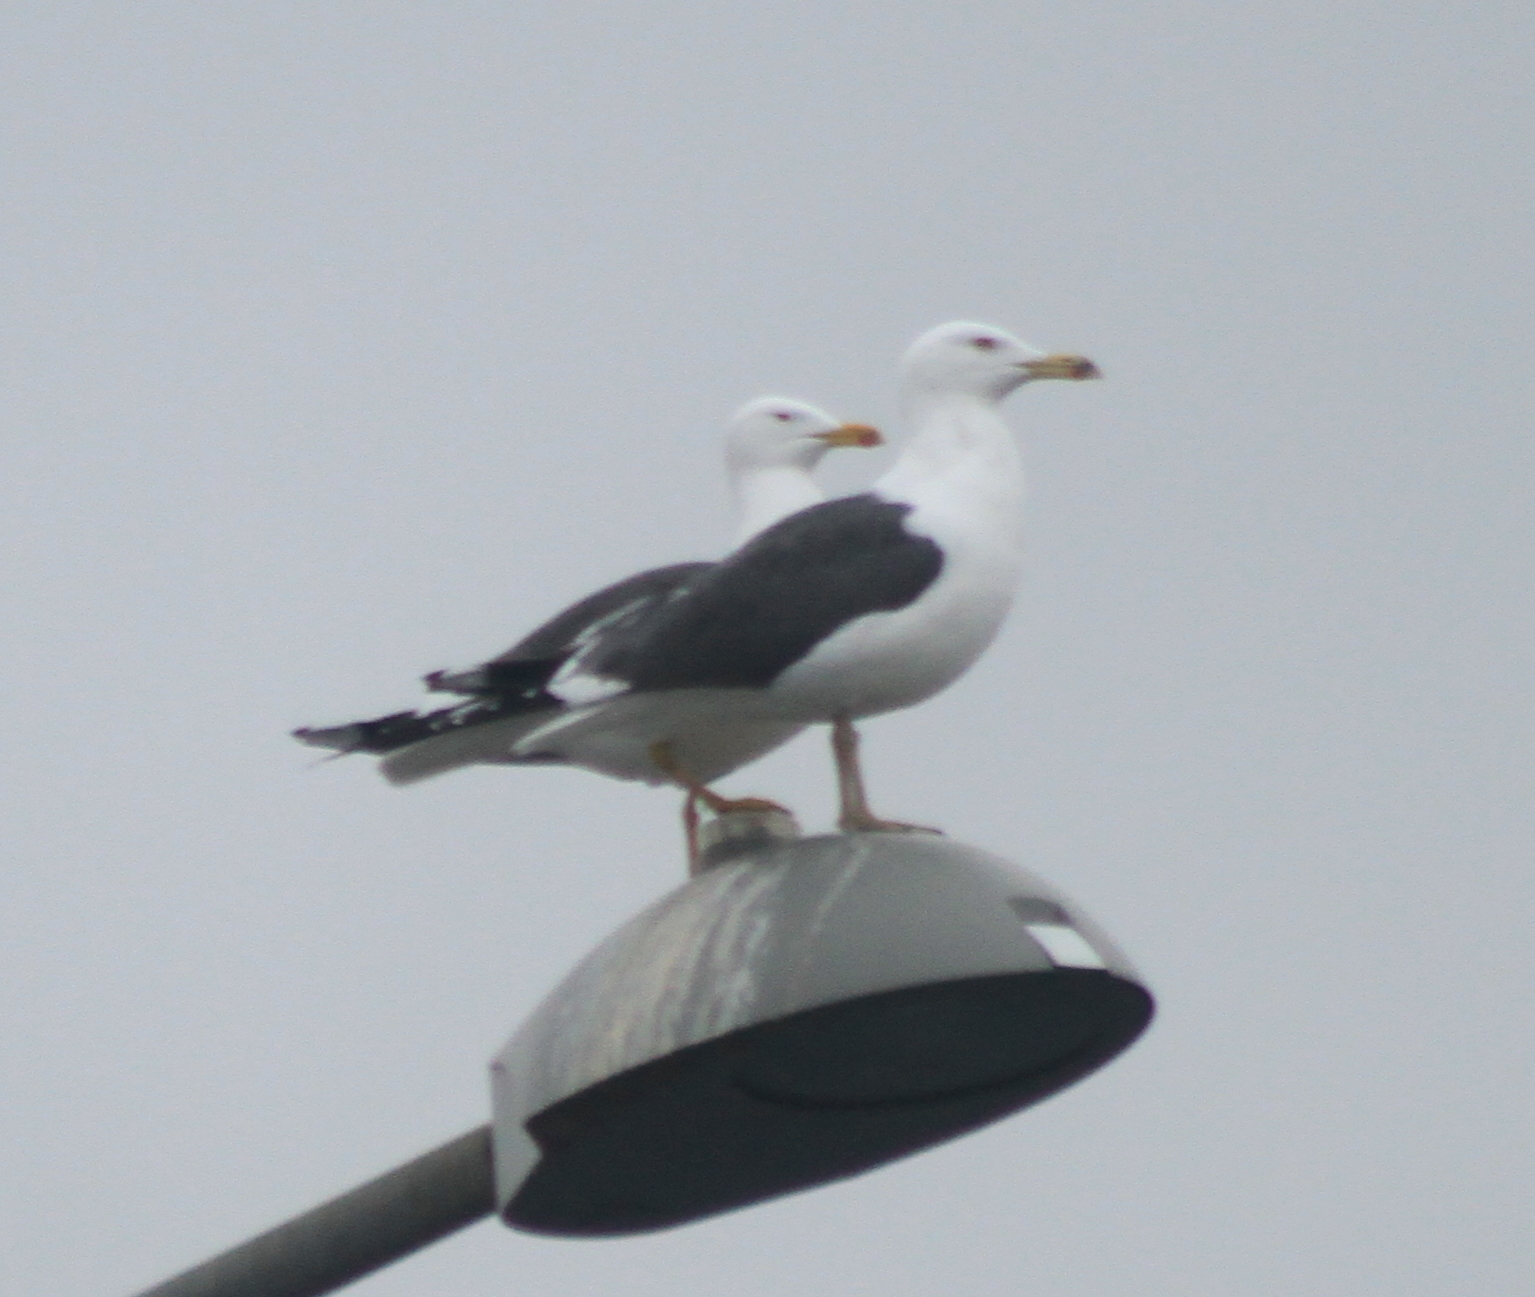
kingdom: Animalia
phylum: Chordata
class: Aves
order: Charadriiformes
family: Laridae
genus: Larus
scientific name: Larus fuscus
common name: Lesser black-backed gull
